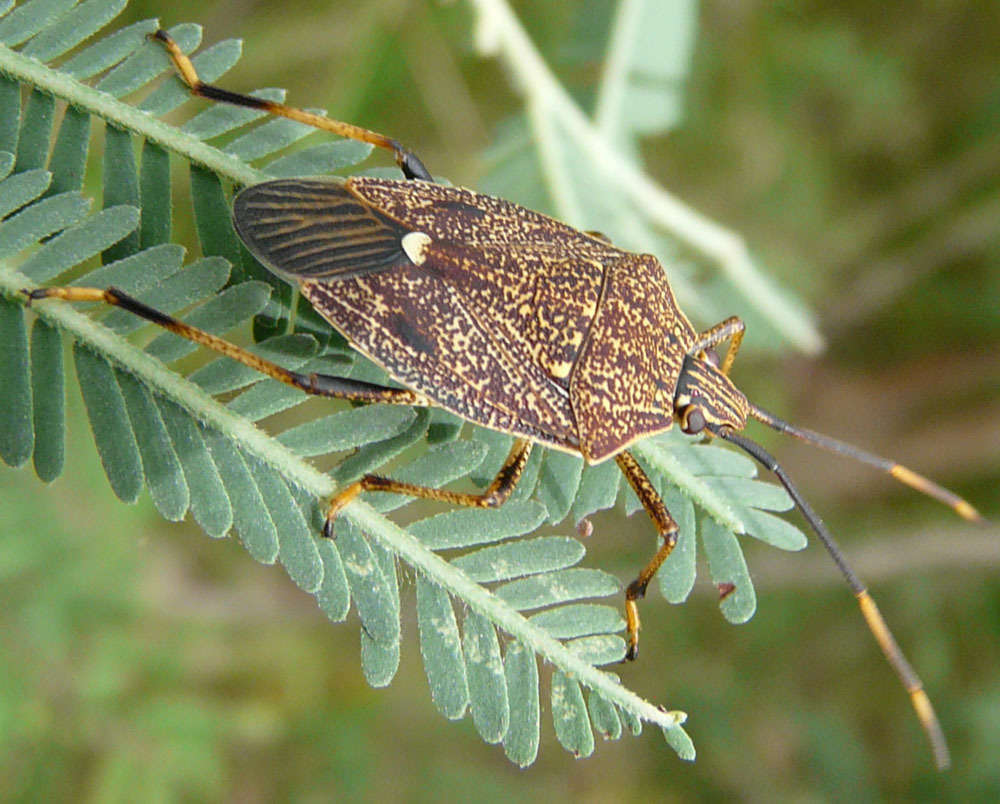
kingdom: Animalia
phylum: Arthropoda
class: Insecta
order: Hemiptera
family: Pentatomidae
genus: Poecilometis
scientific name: Poecilometis
